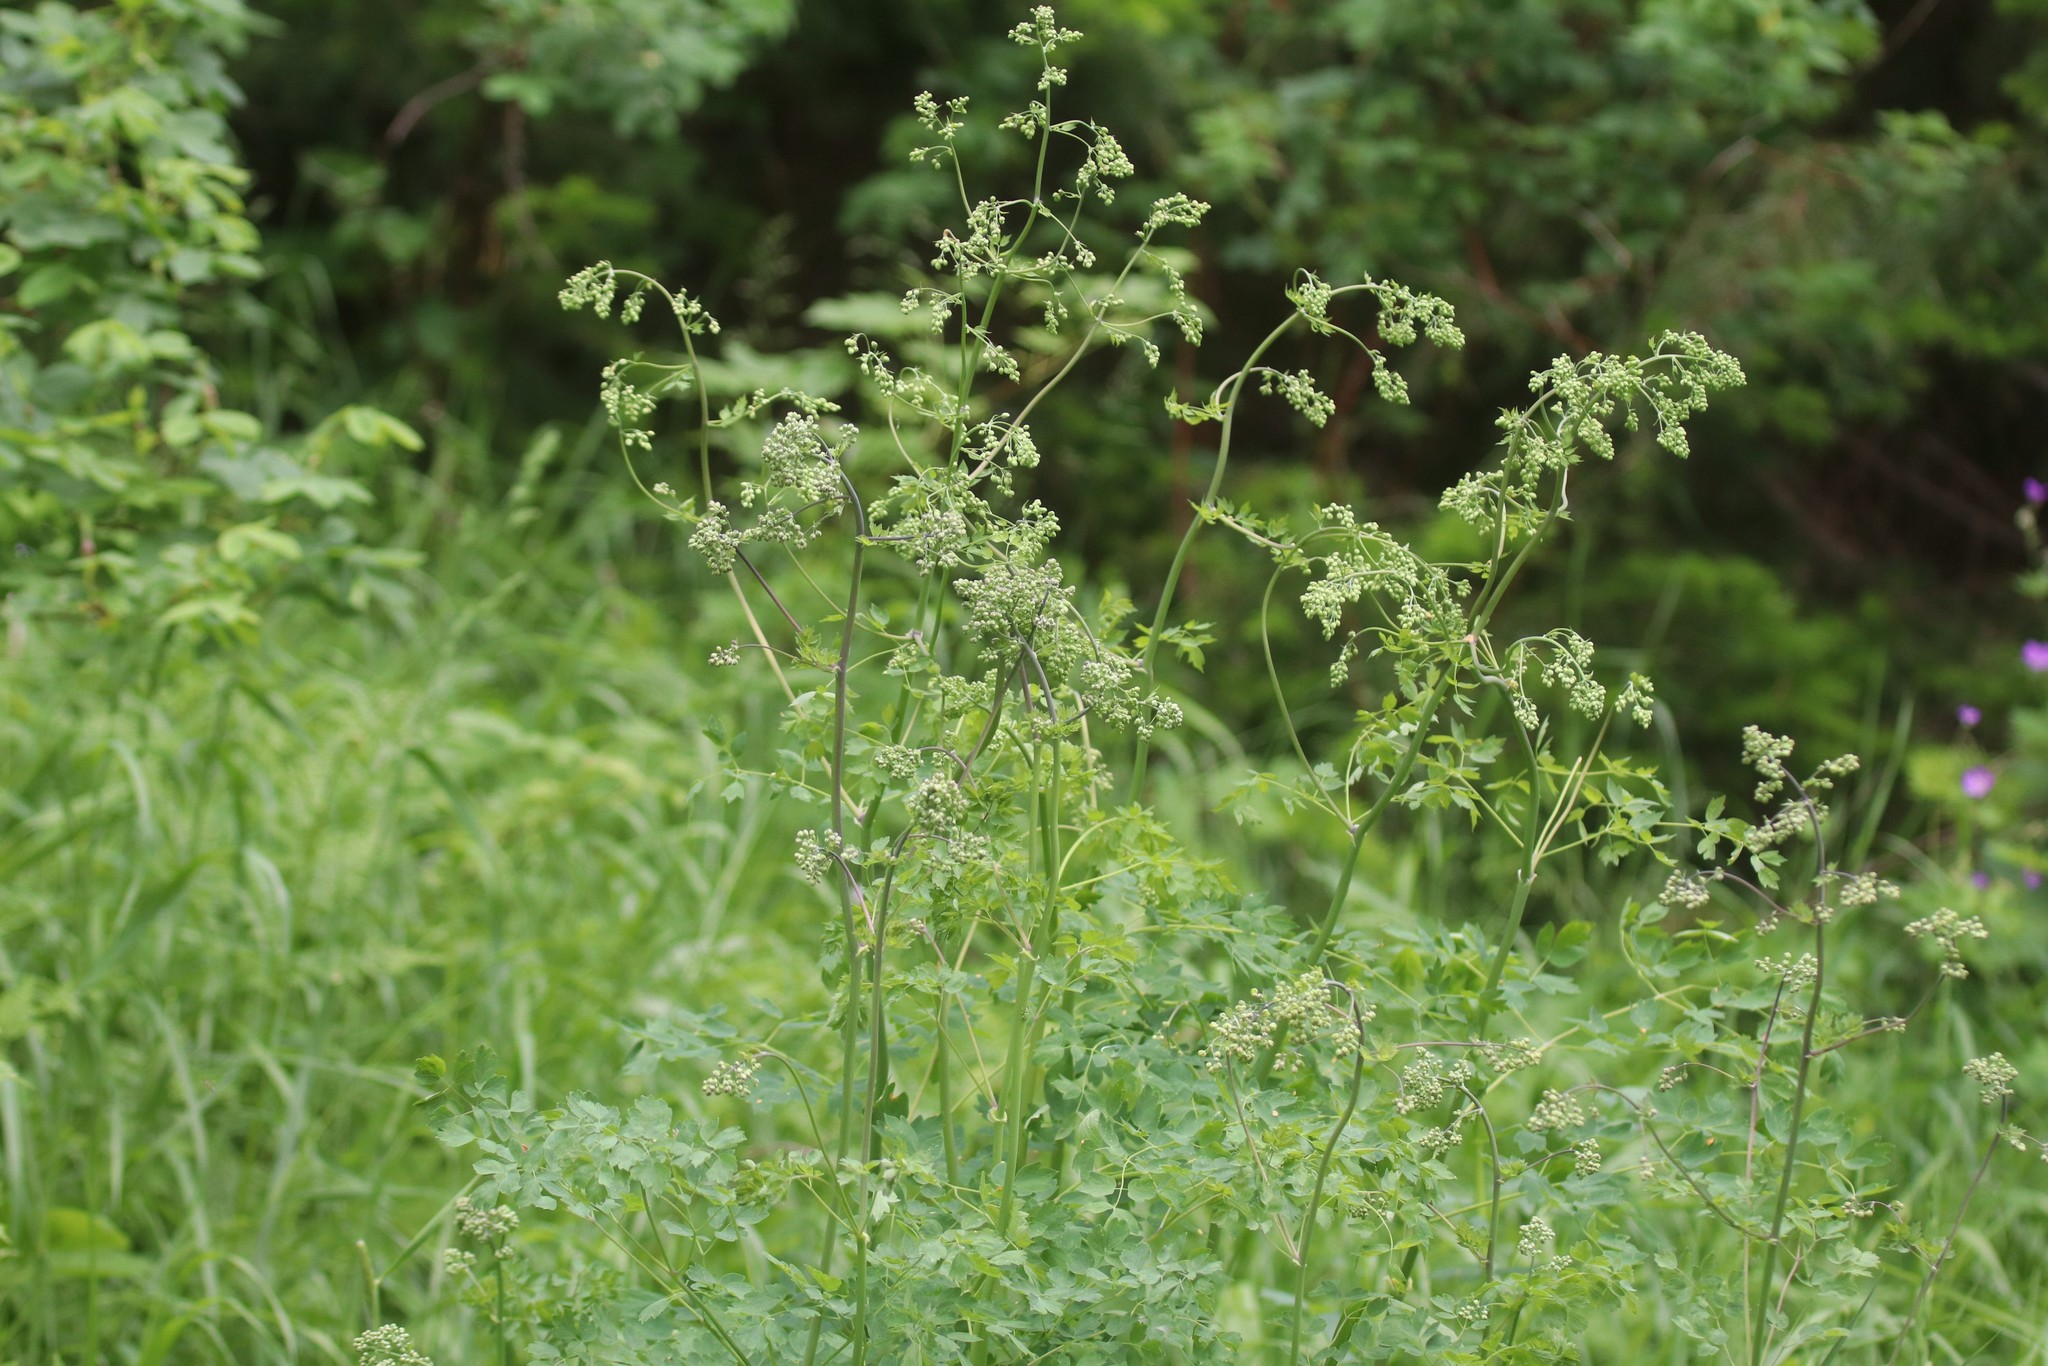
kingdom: Plantae
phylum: Tracheophyta
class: Magnoliopsida
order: Ranunculales
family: Ranunculaceae
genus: Thalictrum
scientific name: Thalictrum minus
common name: Lesser meadow-rue
